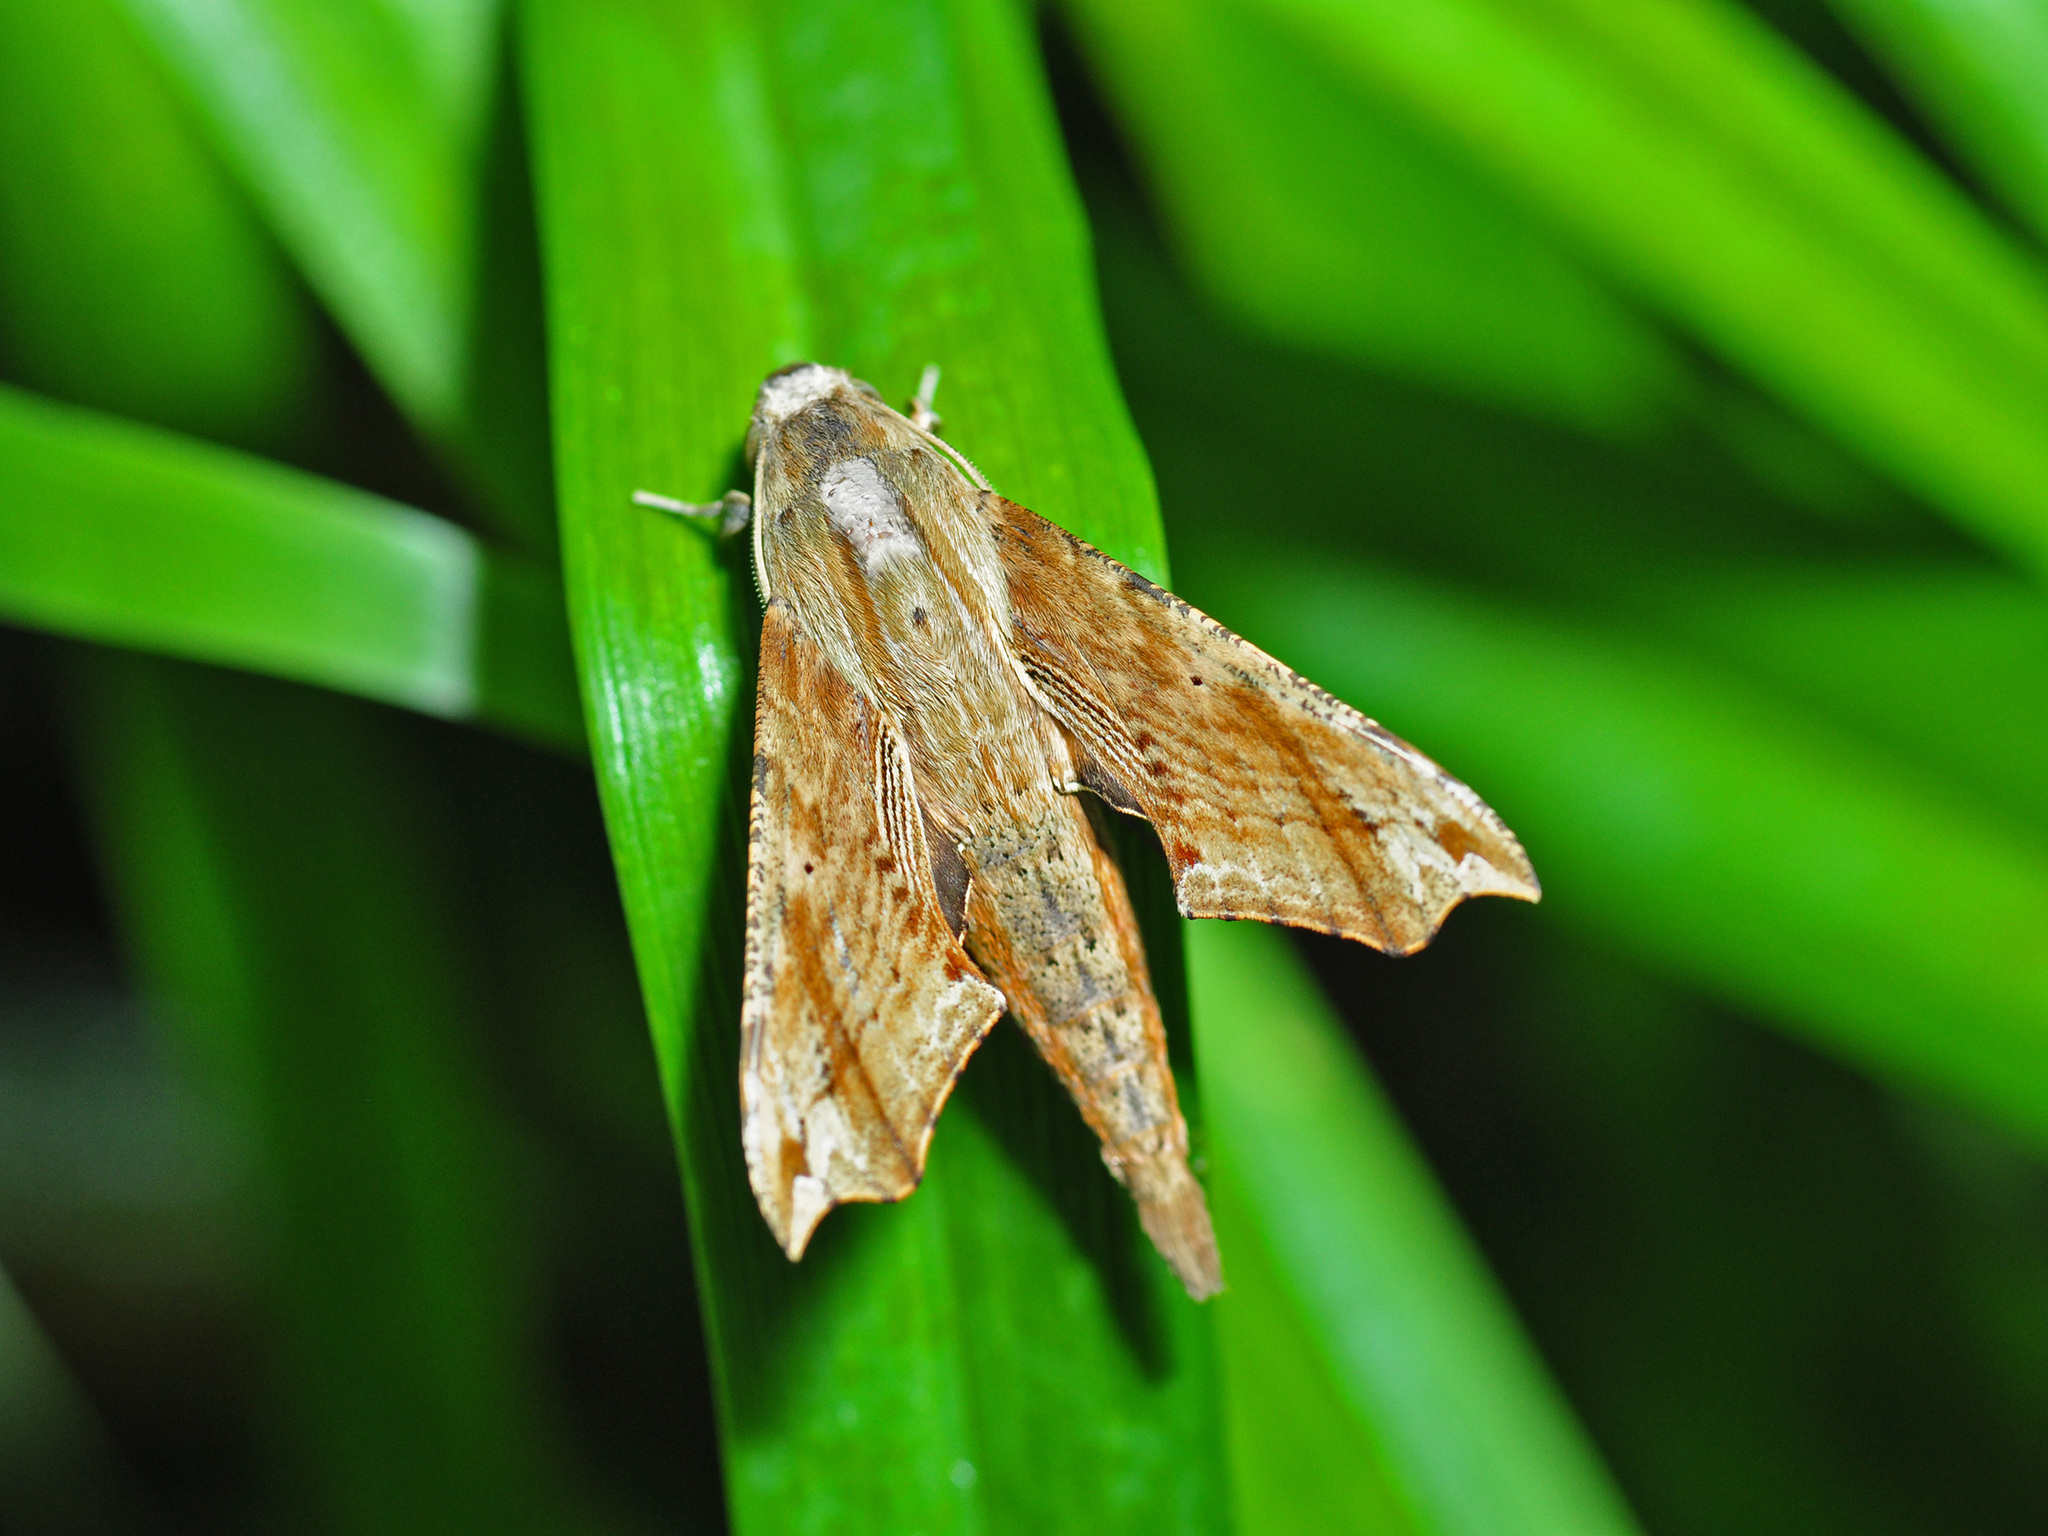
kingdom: Animalia
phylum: Arthropoda
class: Insecta
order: Lepidoptera
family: Sphingidae
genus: Eupanacra
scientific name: Eupanacra malayana
